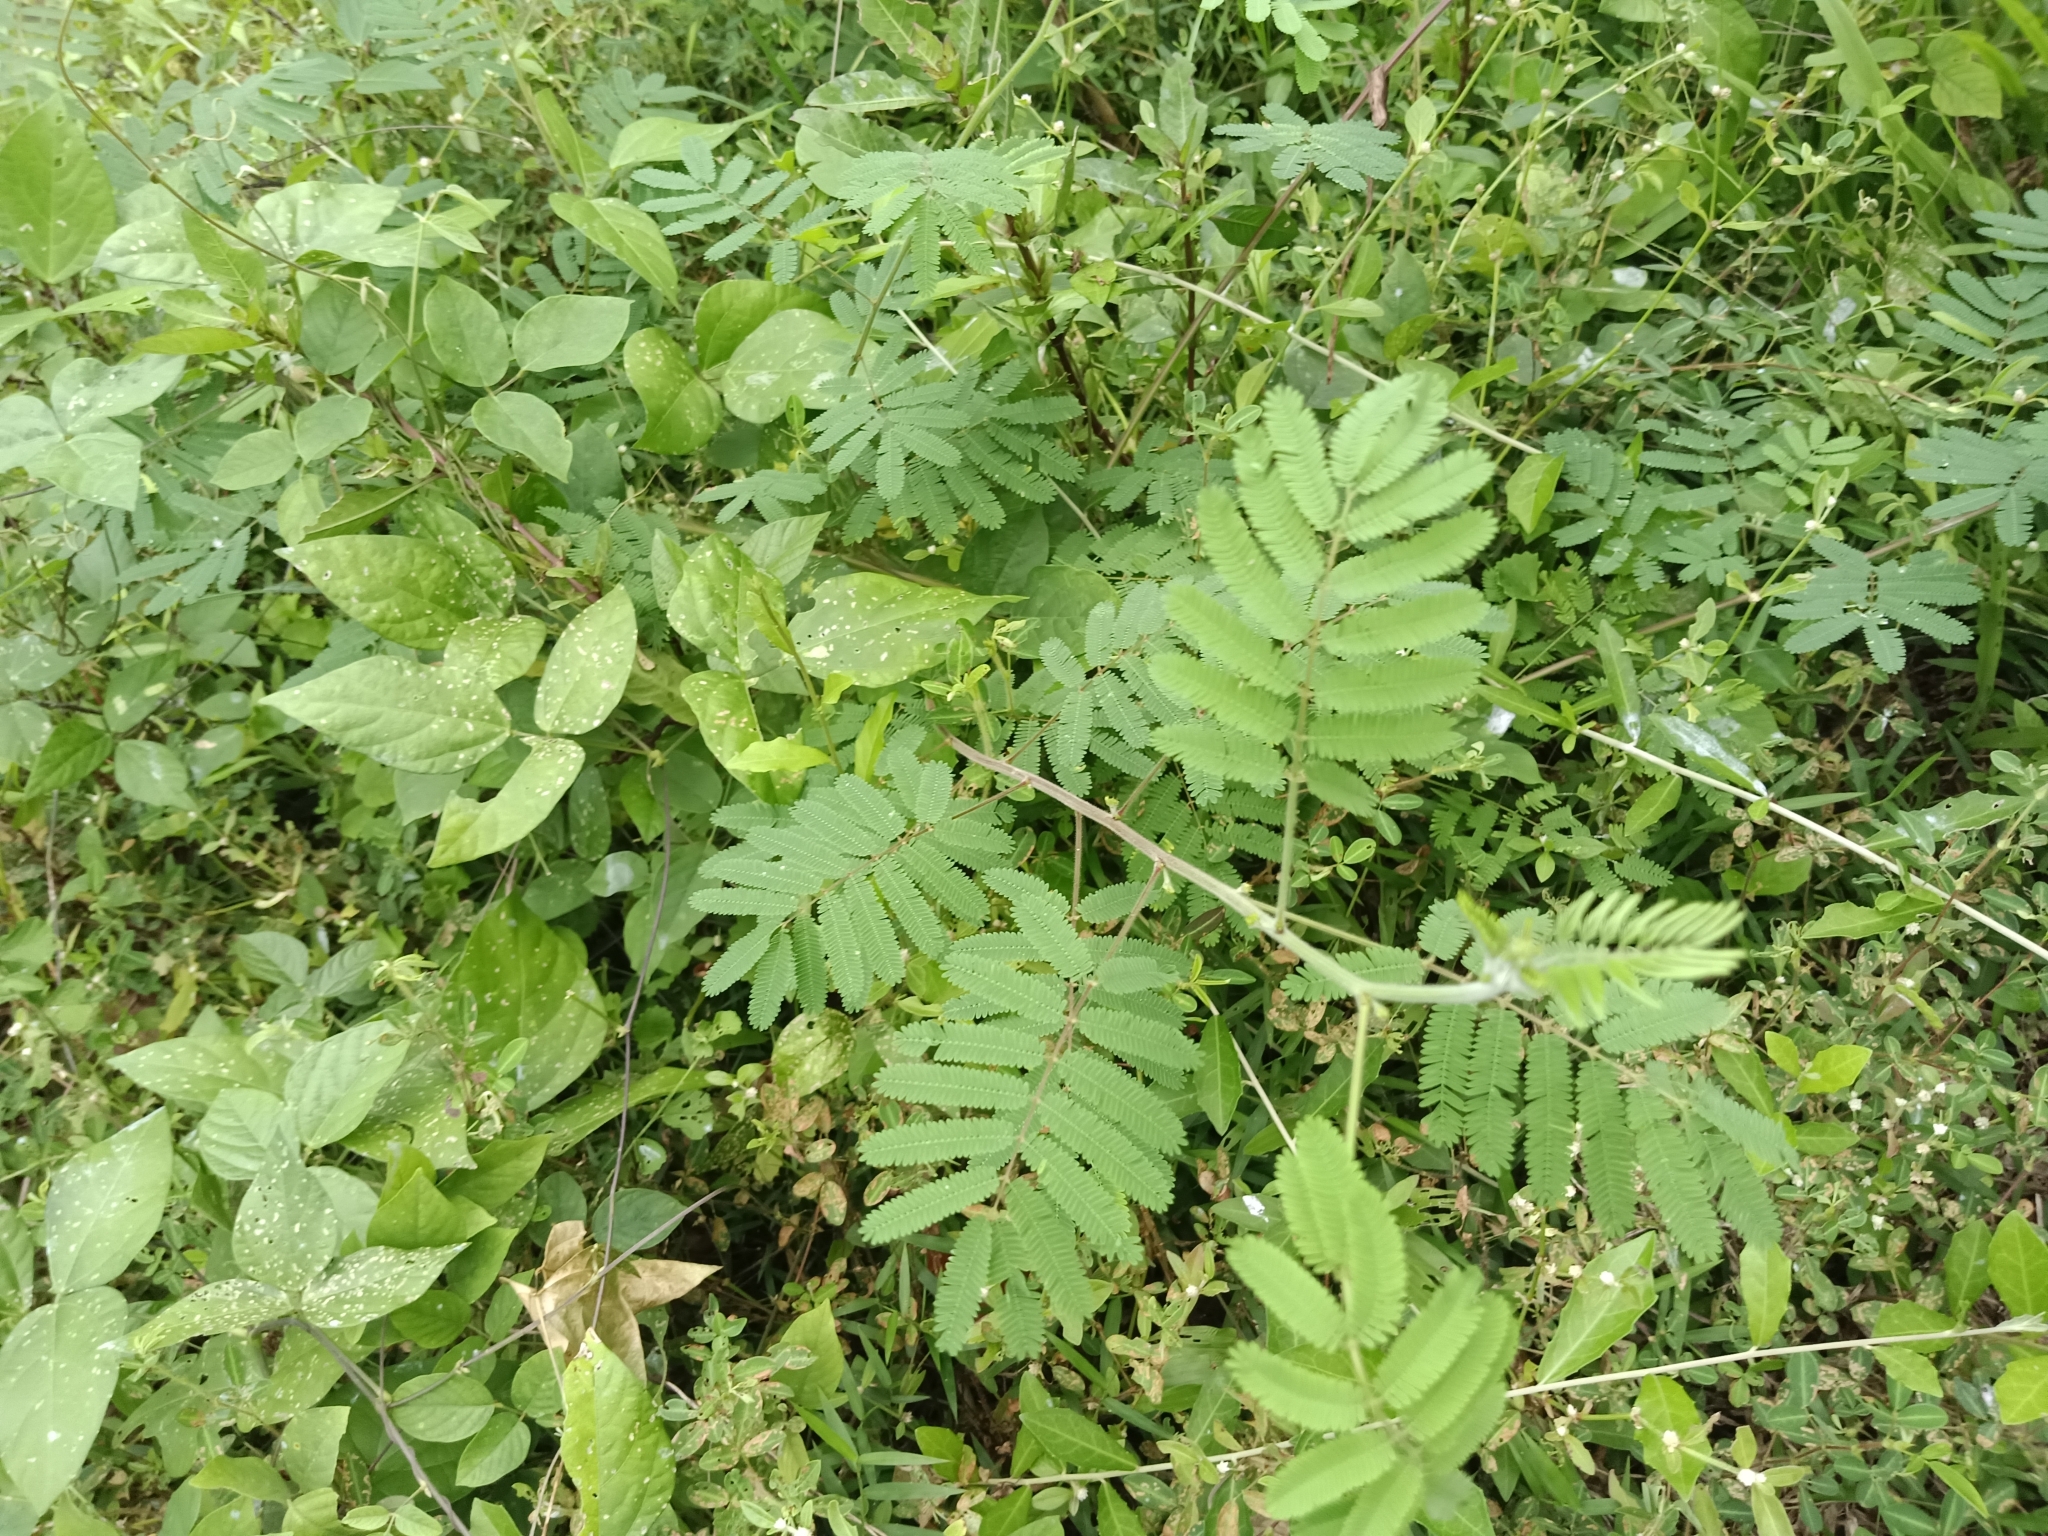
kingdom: Plantae
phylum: Tracheophyta
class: Magnoliopsida
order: Fabales
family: Fabaceae
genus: Mimosa
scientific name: Mimosa diplotricha
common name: Giant sensitive-plant
